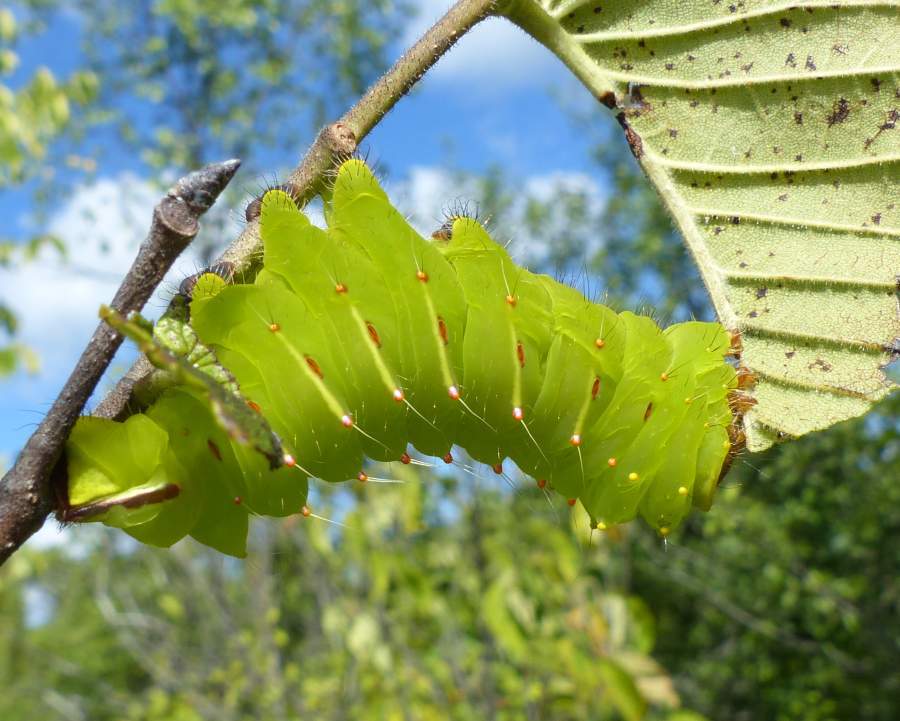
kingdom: Animalia
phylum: Arthropoda
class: Insecta
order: Lepidoptera
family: Saturniidae
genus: Antheraea
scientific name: Antheraea polyphemus
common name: Polyphemus moth
